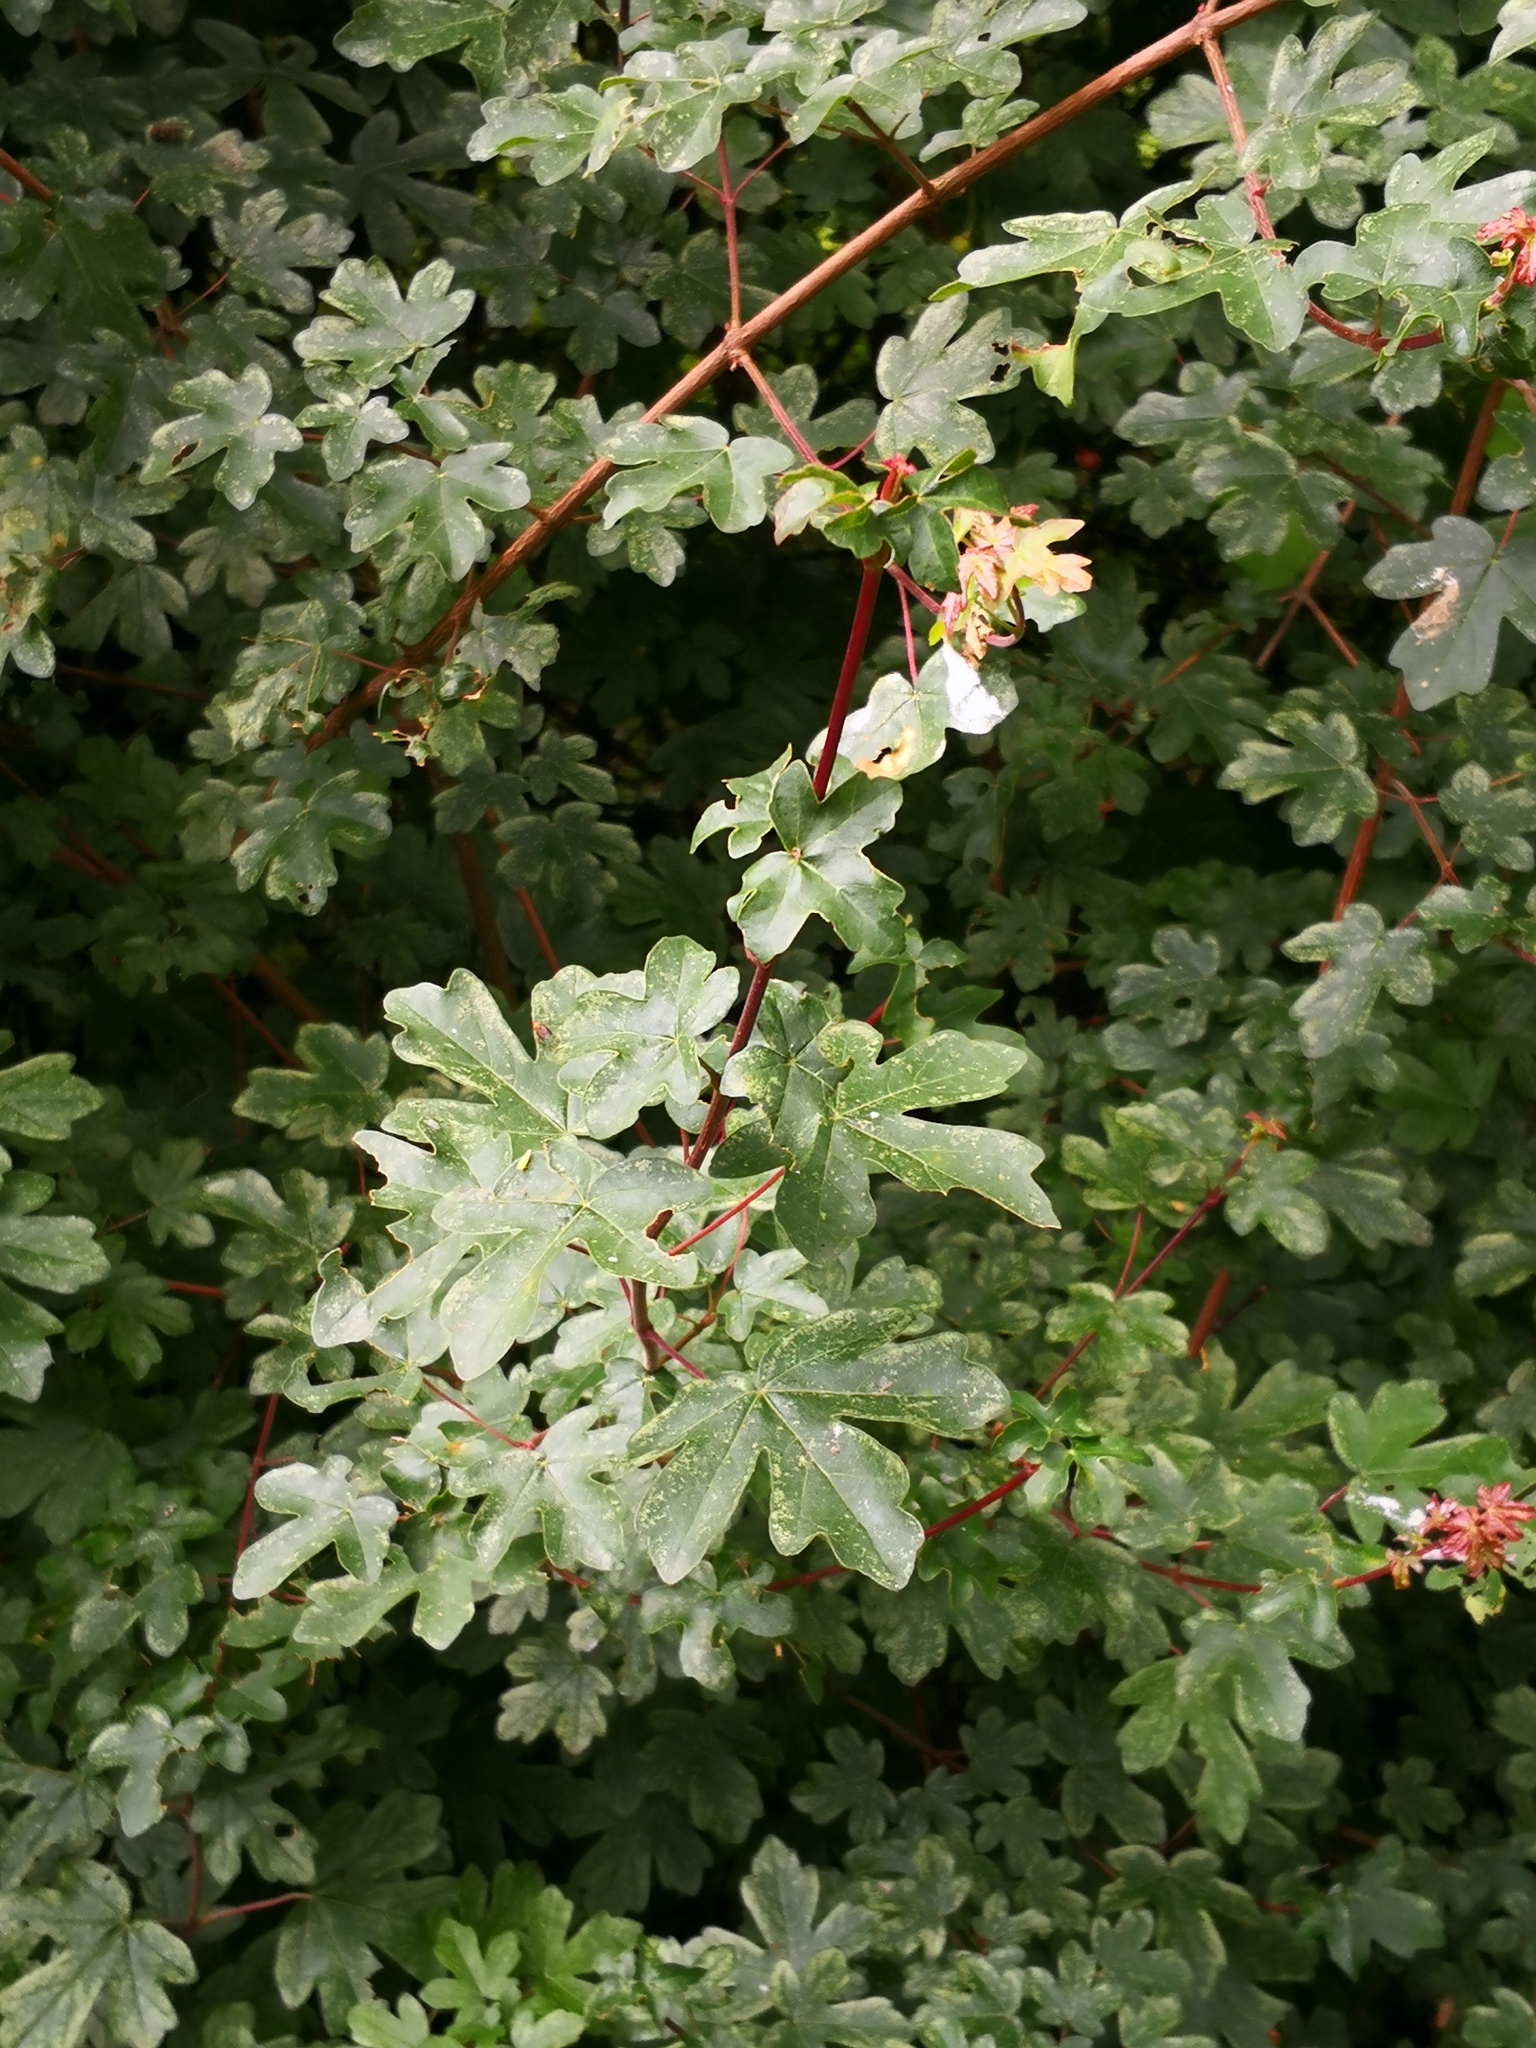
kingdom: Plantae
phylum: Tracheophyta
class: Magnoliopsida
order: Sapindales
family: Sapindaceae
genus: Acer
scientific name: Acer campestre
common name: Field maple
